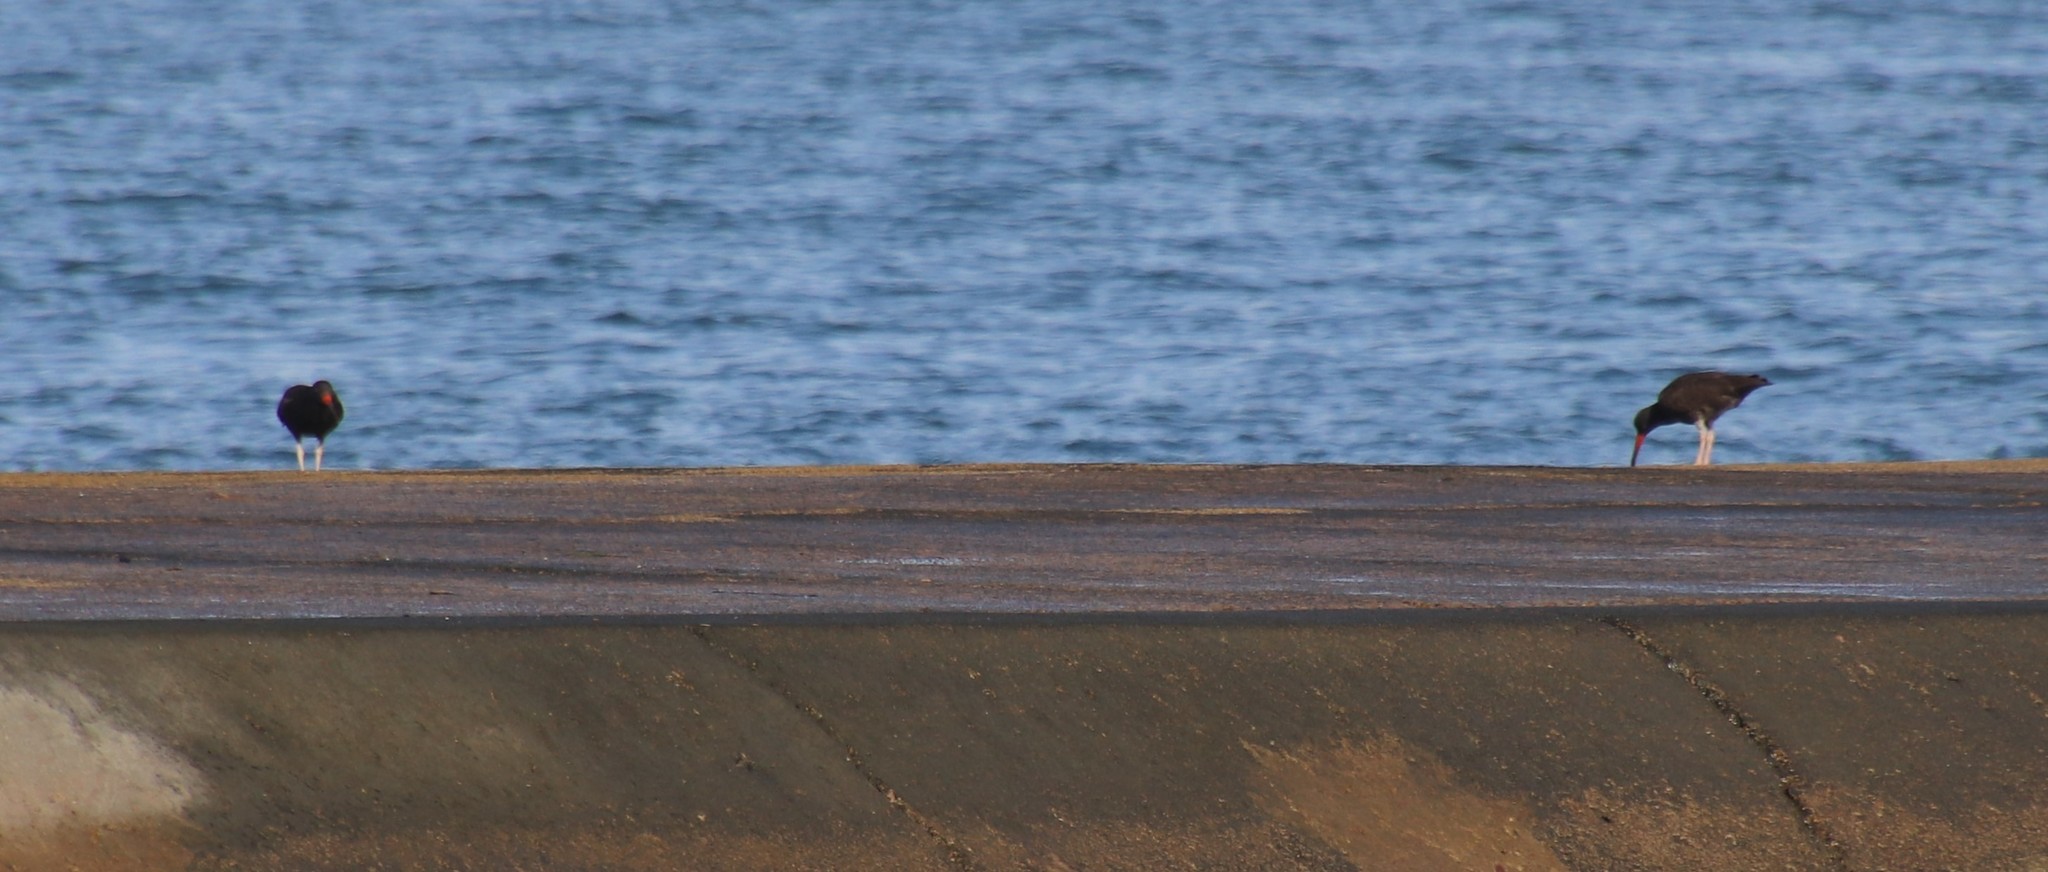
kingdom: Animalia
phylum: Chordata
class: Aves
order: Charadriiformes
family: Haematopodidae
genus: Haematopus
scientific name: Haematopus bachmani
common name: Black oystercatcher
